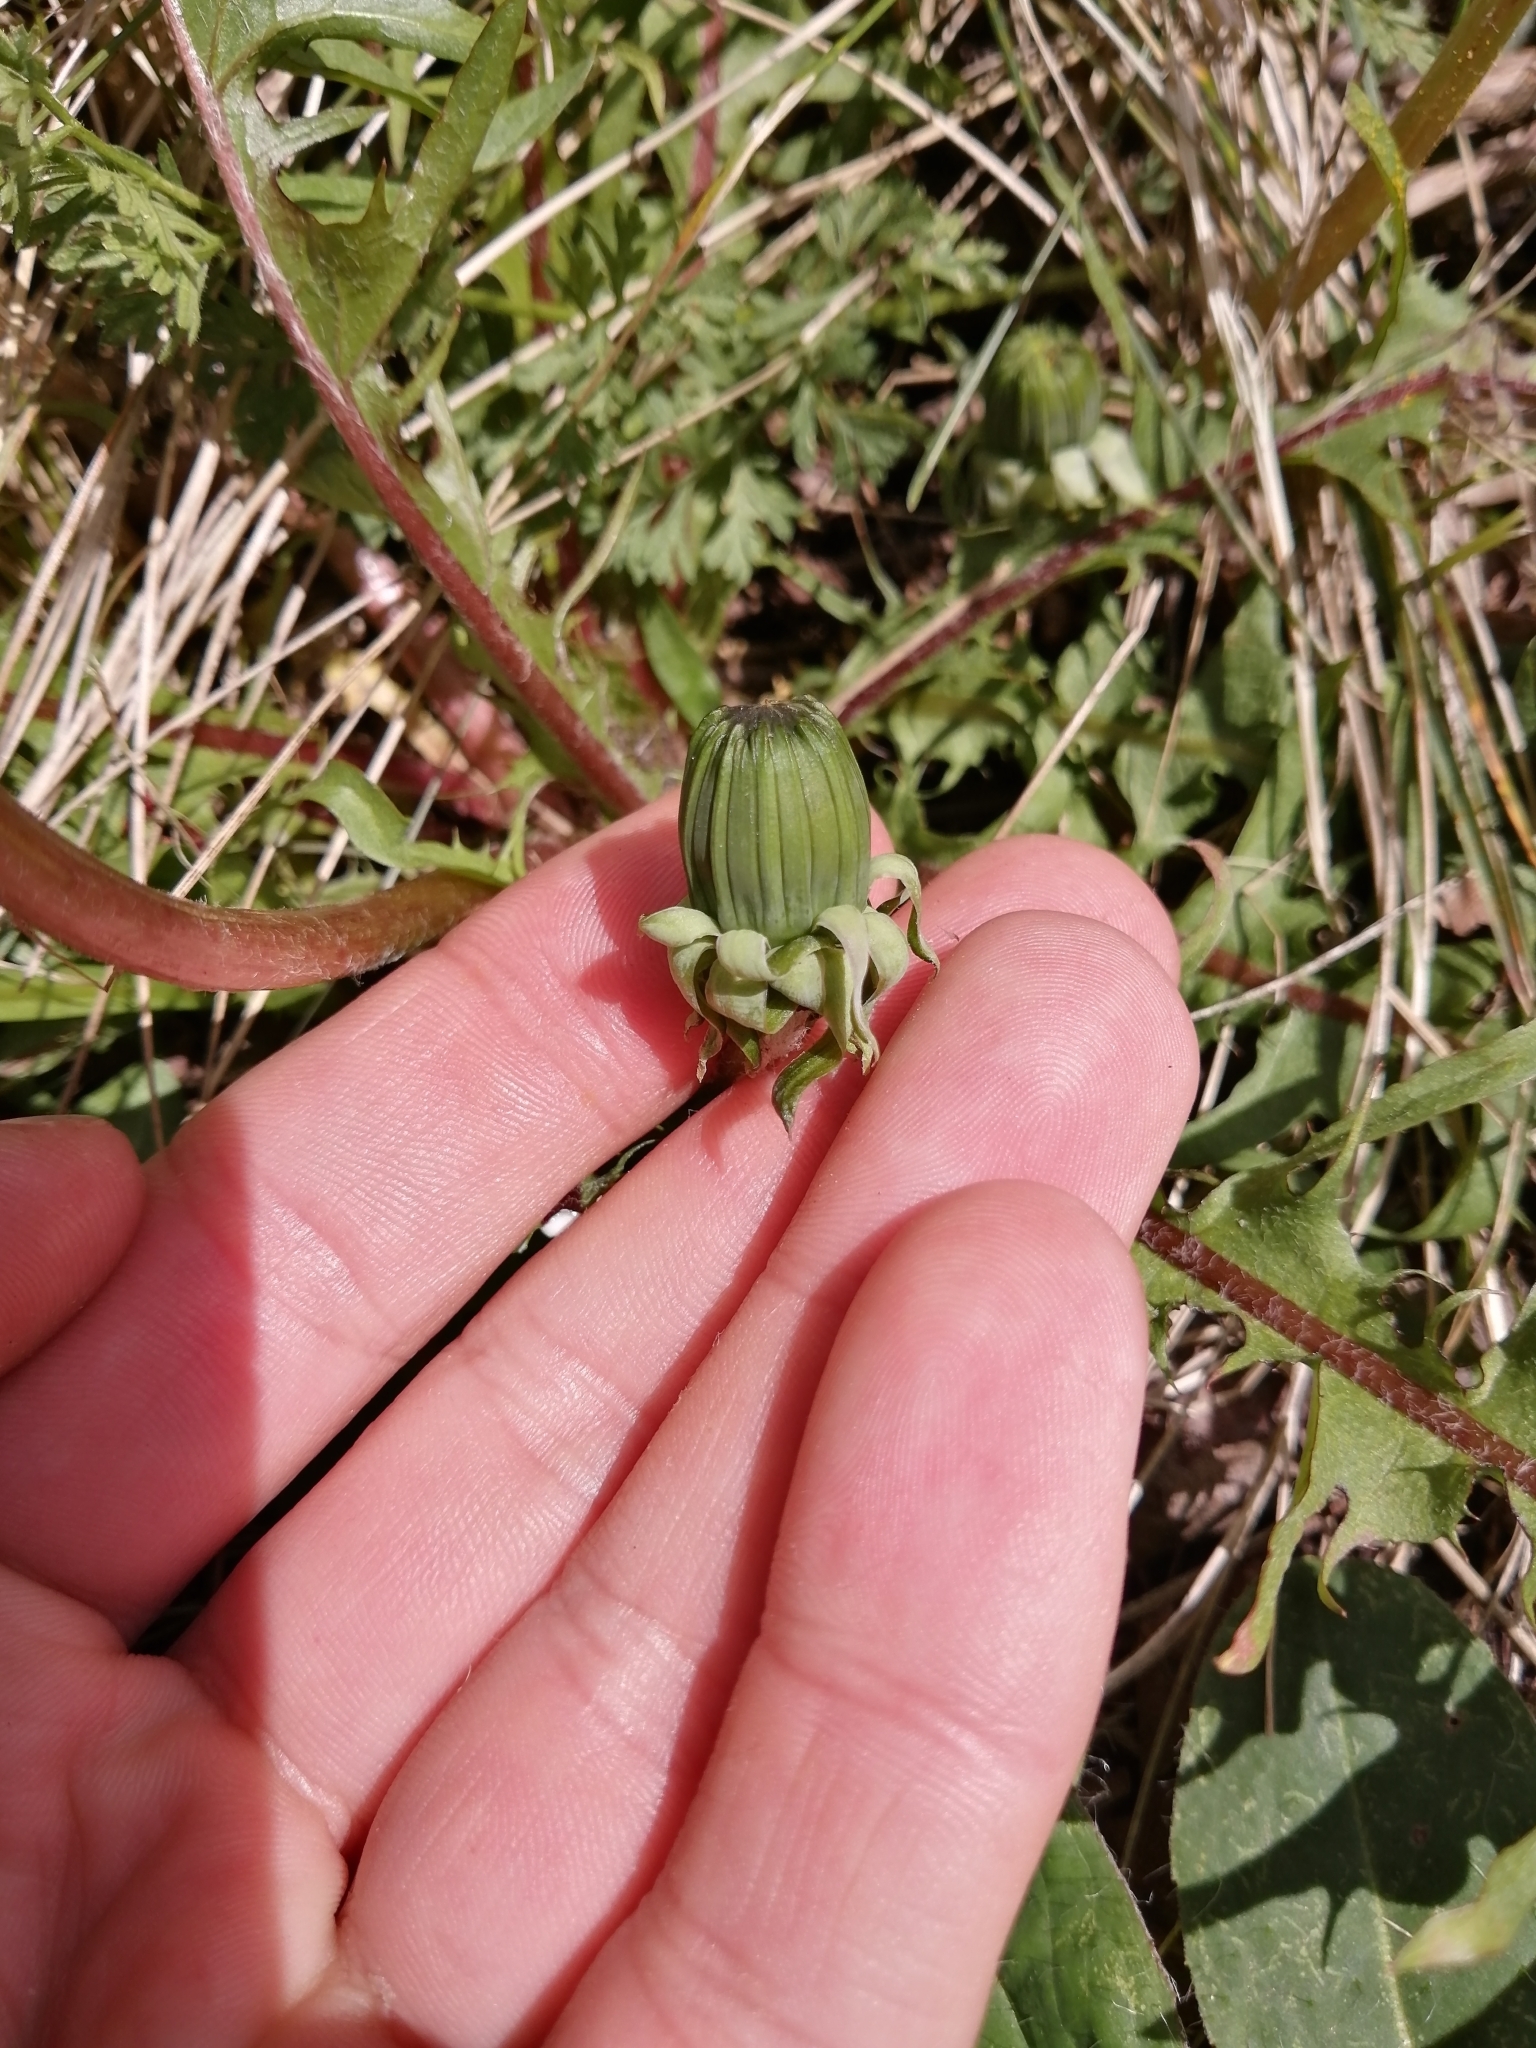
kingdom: Plantae
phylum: Tracheophyta
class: Magnoliopsida
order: Asterales
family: Asteraceae
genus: Taraxacum
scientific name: Taraxacum officinale
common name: Common dandelion
